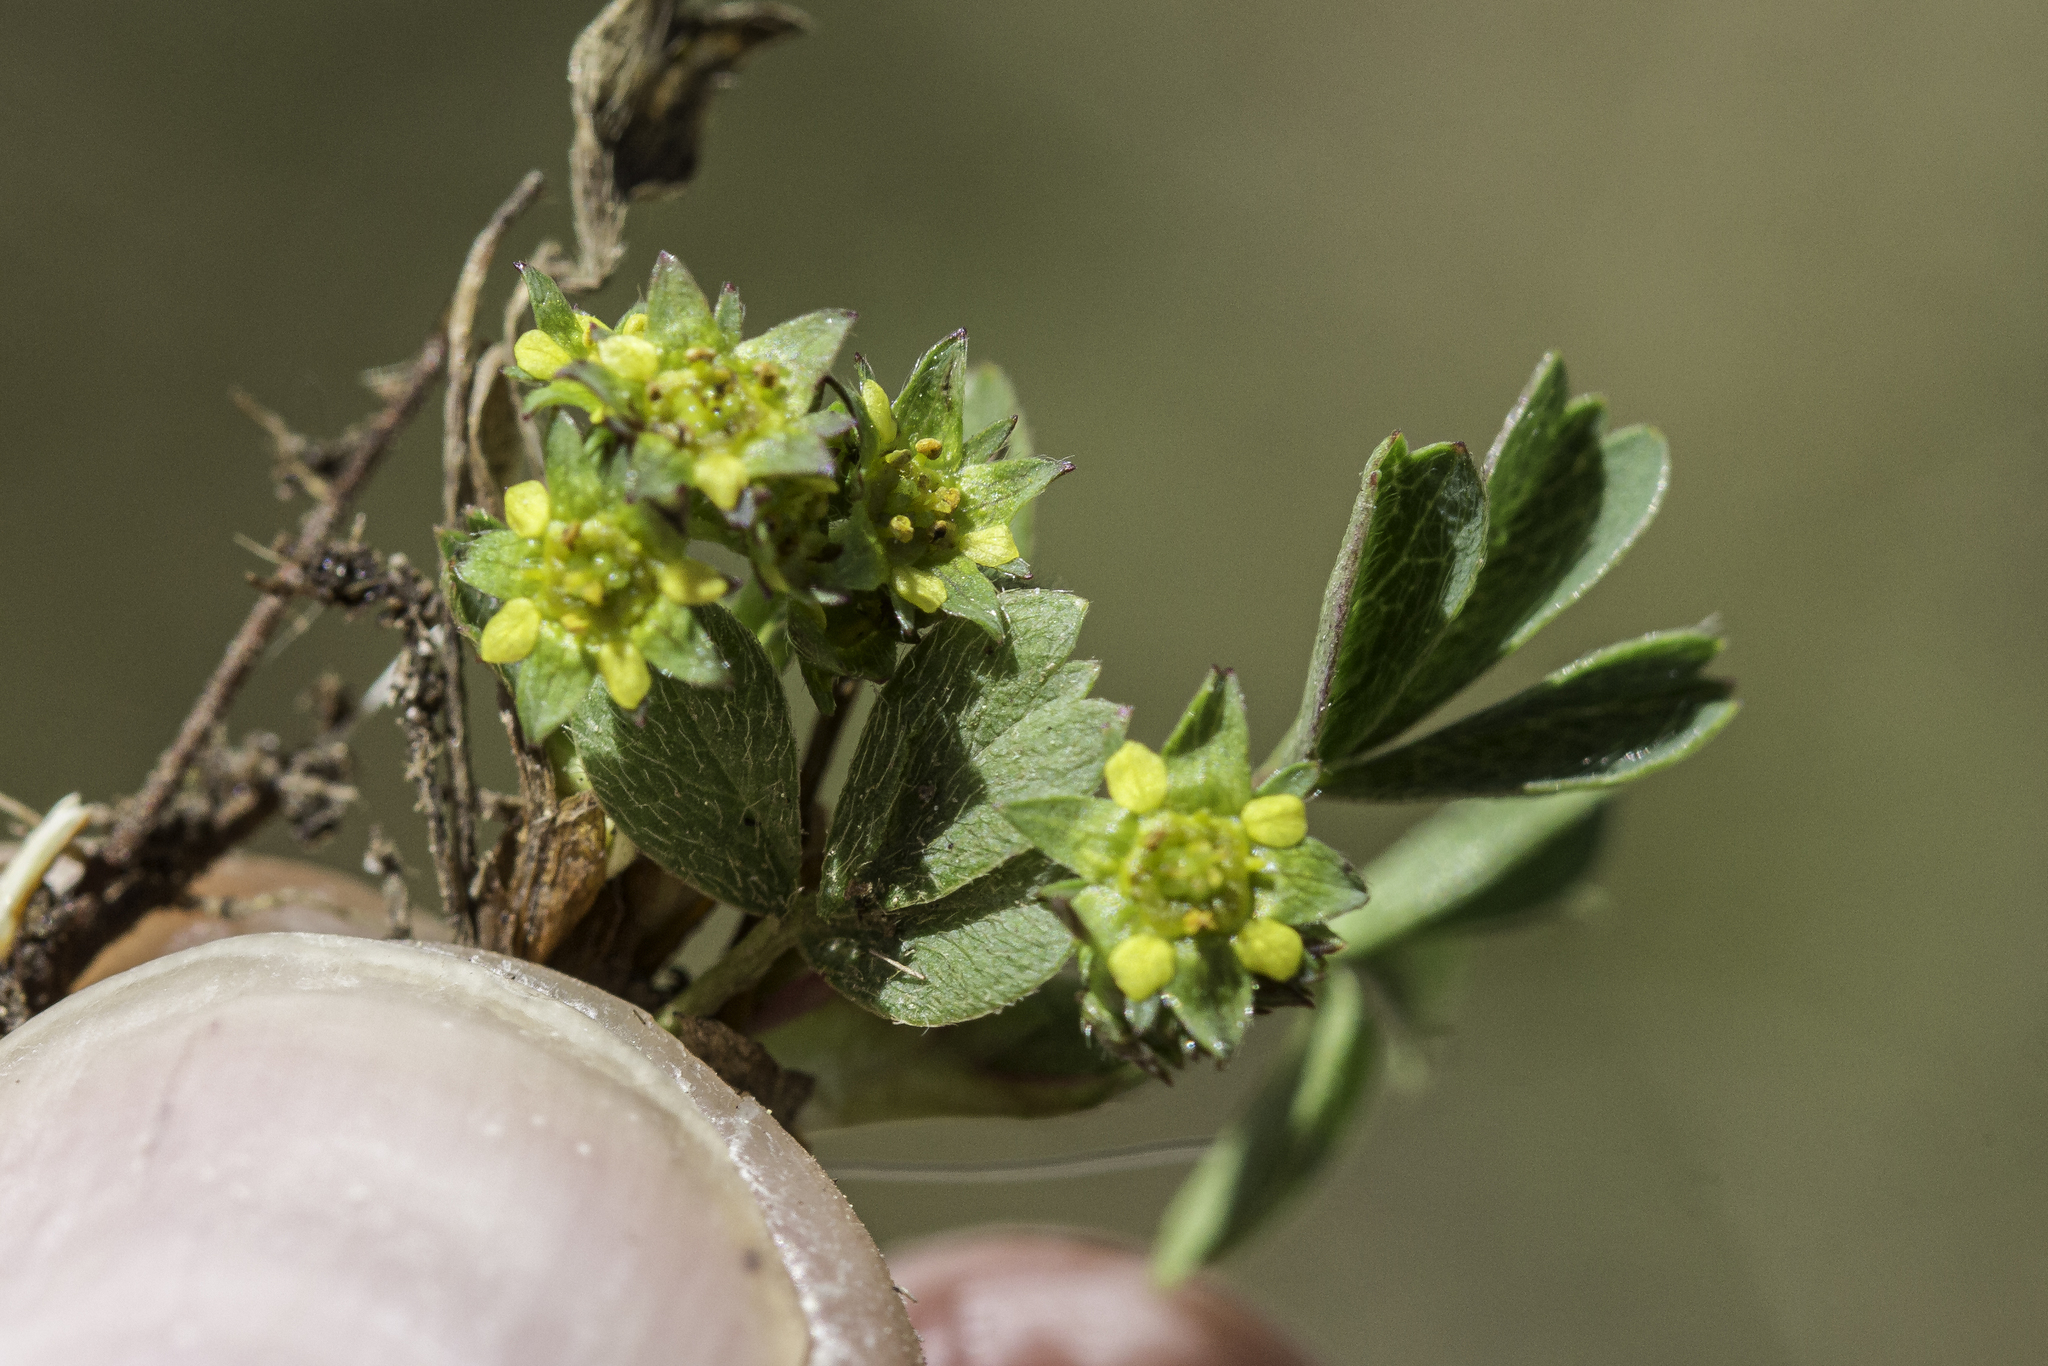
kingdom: Plantae
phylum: Tracheophyta
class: Magnoliopsida
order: Rosales
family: Rosaceae
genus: Sibbaldia
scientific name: Sibbaldia procumbens
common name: Creeping sibbaldia
